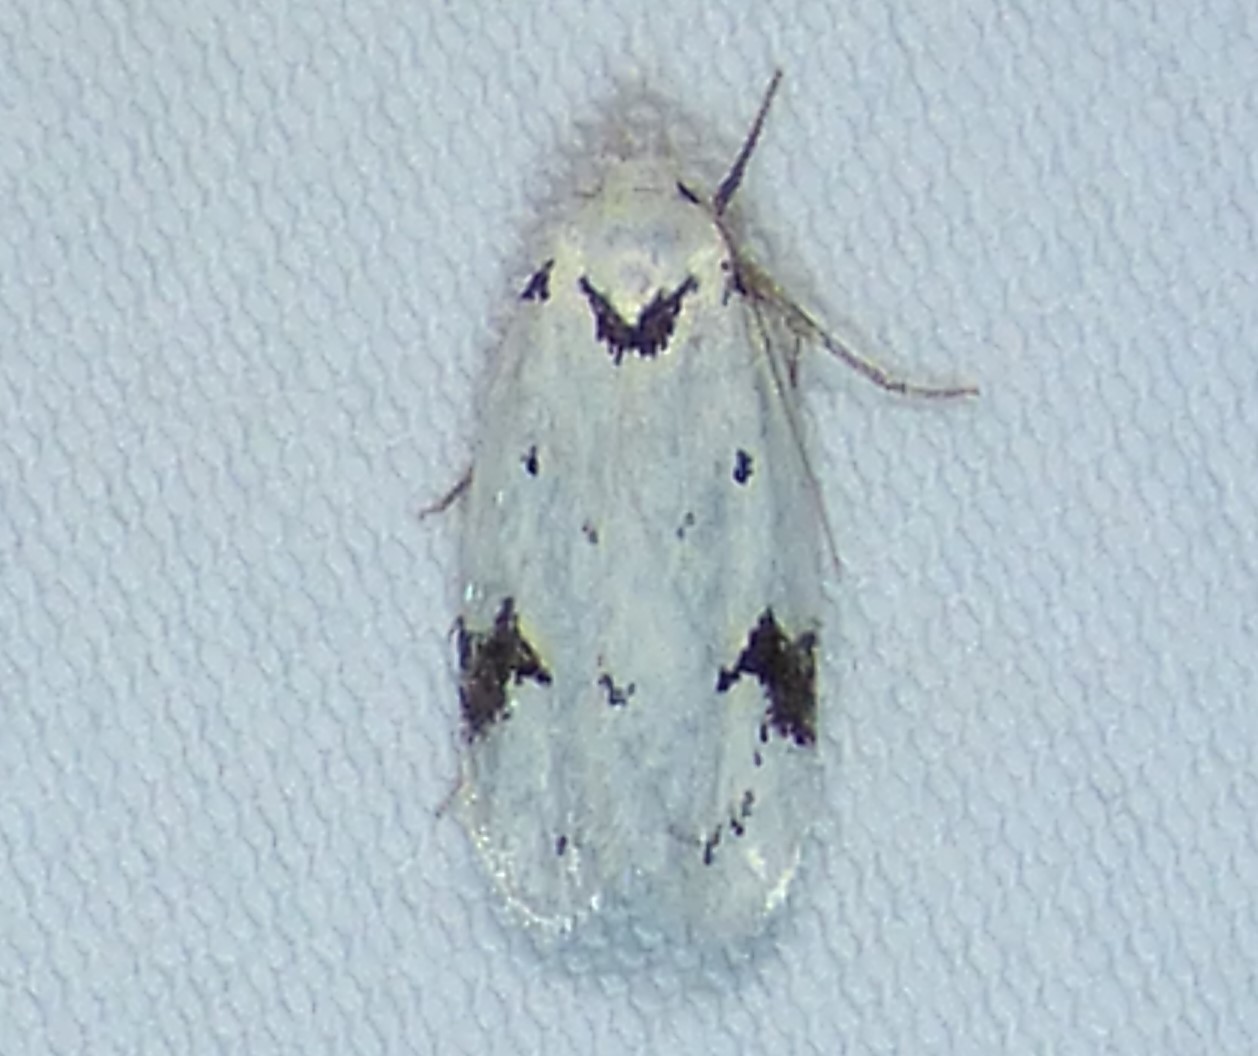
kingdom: Animalia
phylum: Arthropoda
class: Insecta
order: Lepidoptera
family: Oecophoridae
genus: Inga
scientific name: Inga sparsiciliella
